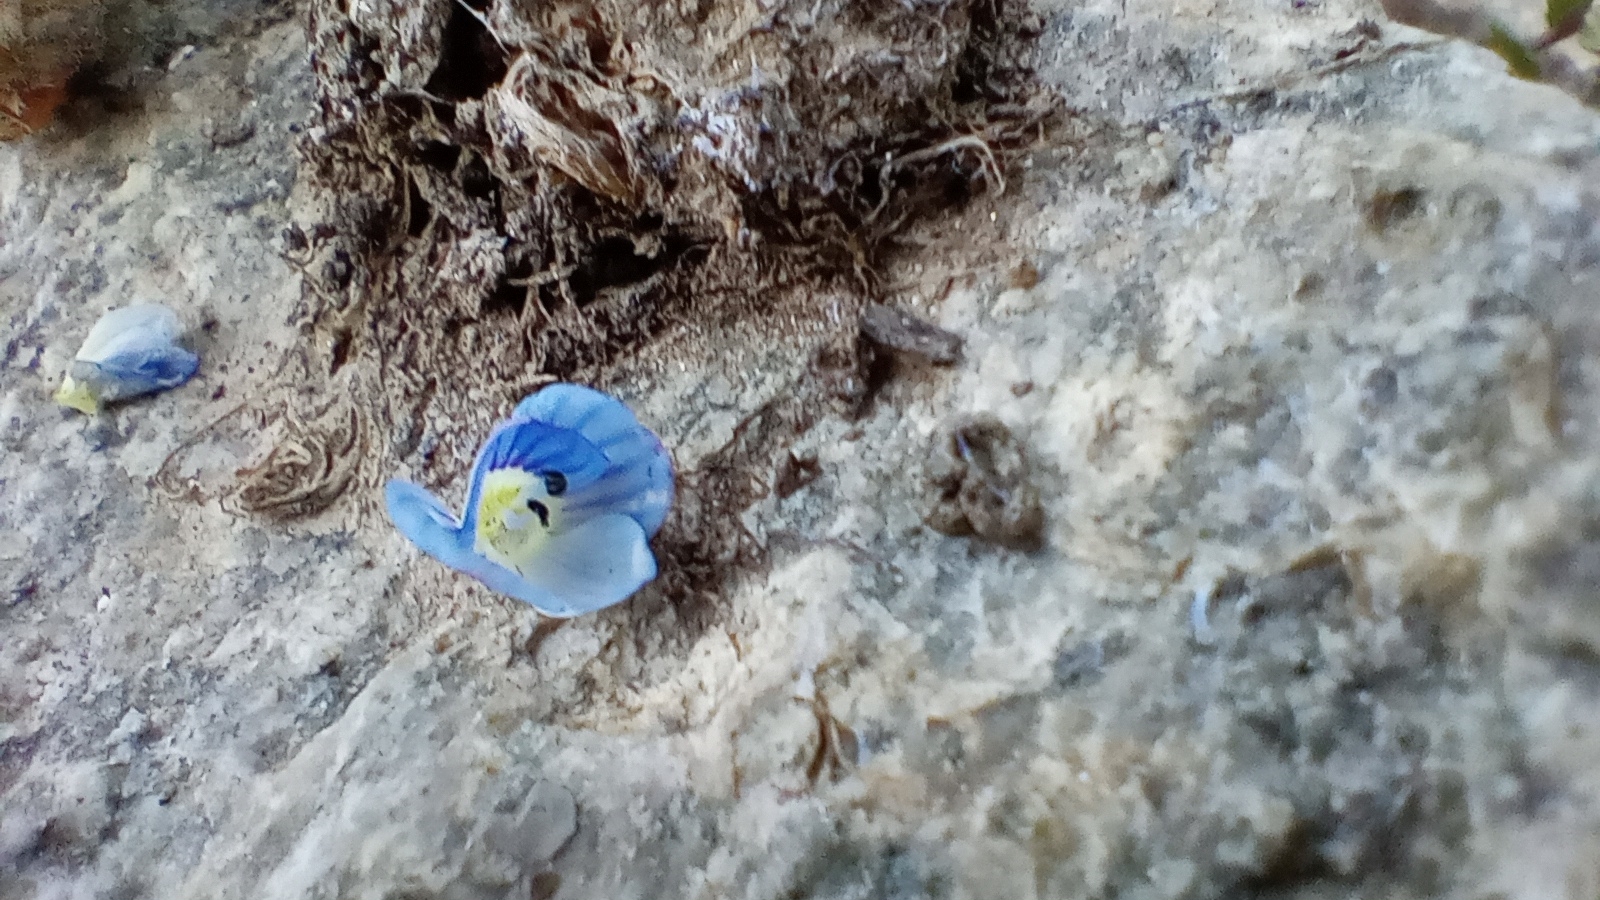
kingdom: Plantae
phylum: Tracheophyta
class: Magnoliopsida
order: Lamiales
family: Plantaginaceae
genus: Veronica
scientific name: Veronica persica
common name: Common field-speedwell
